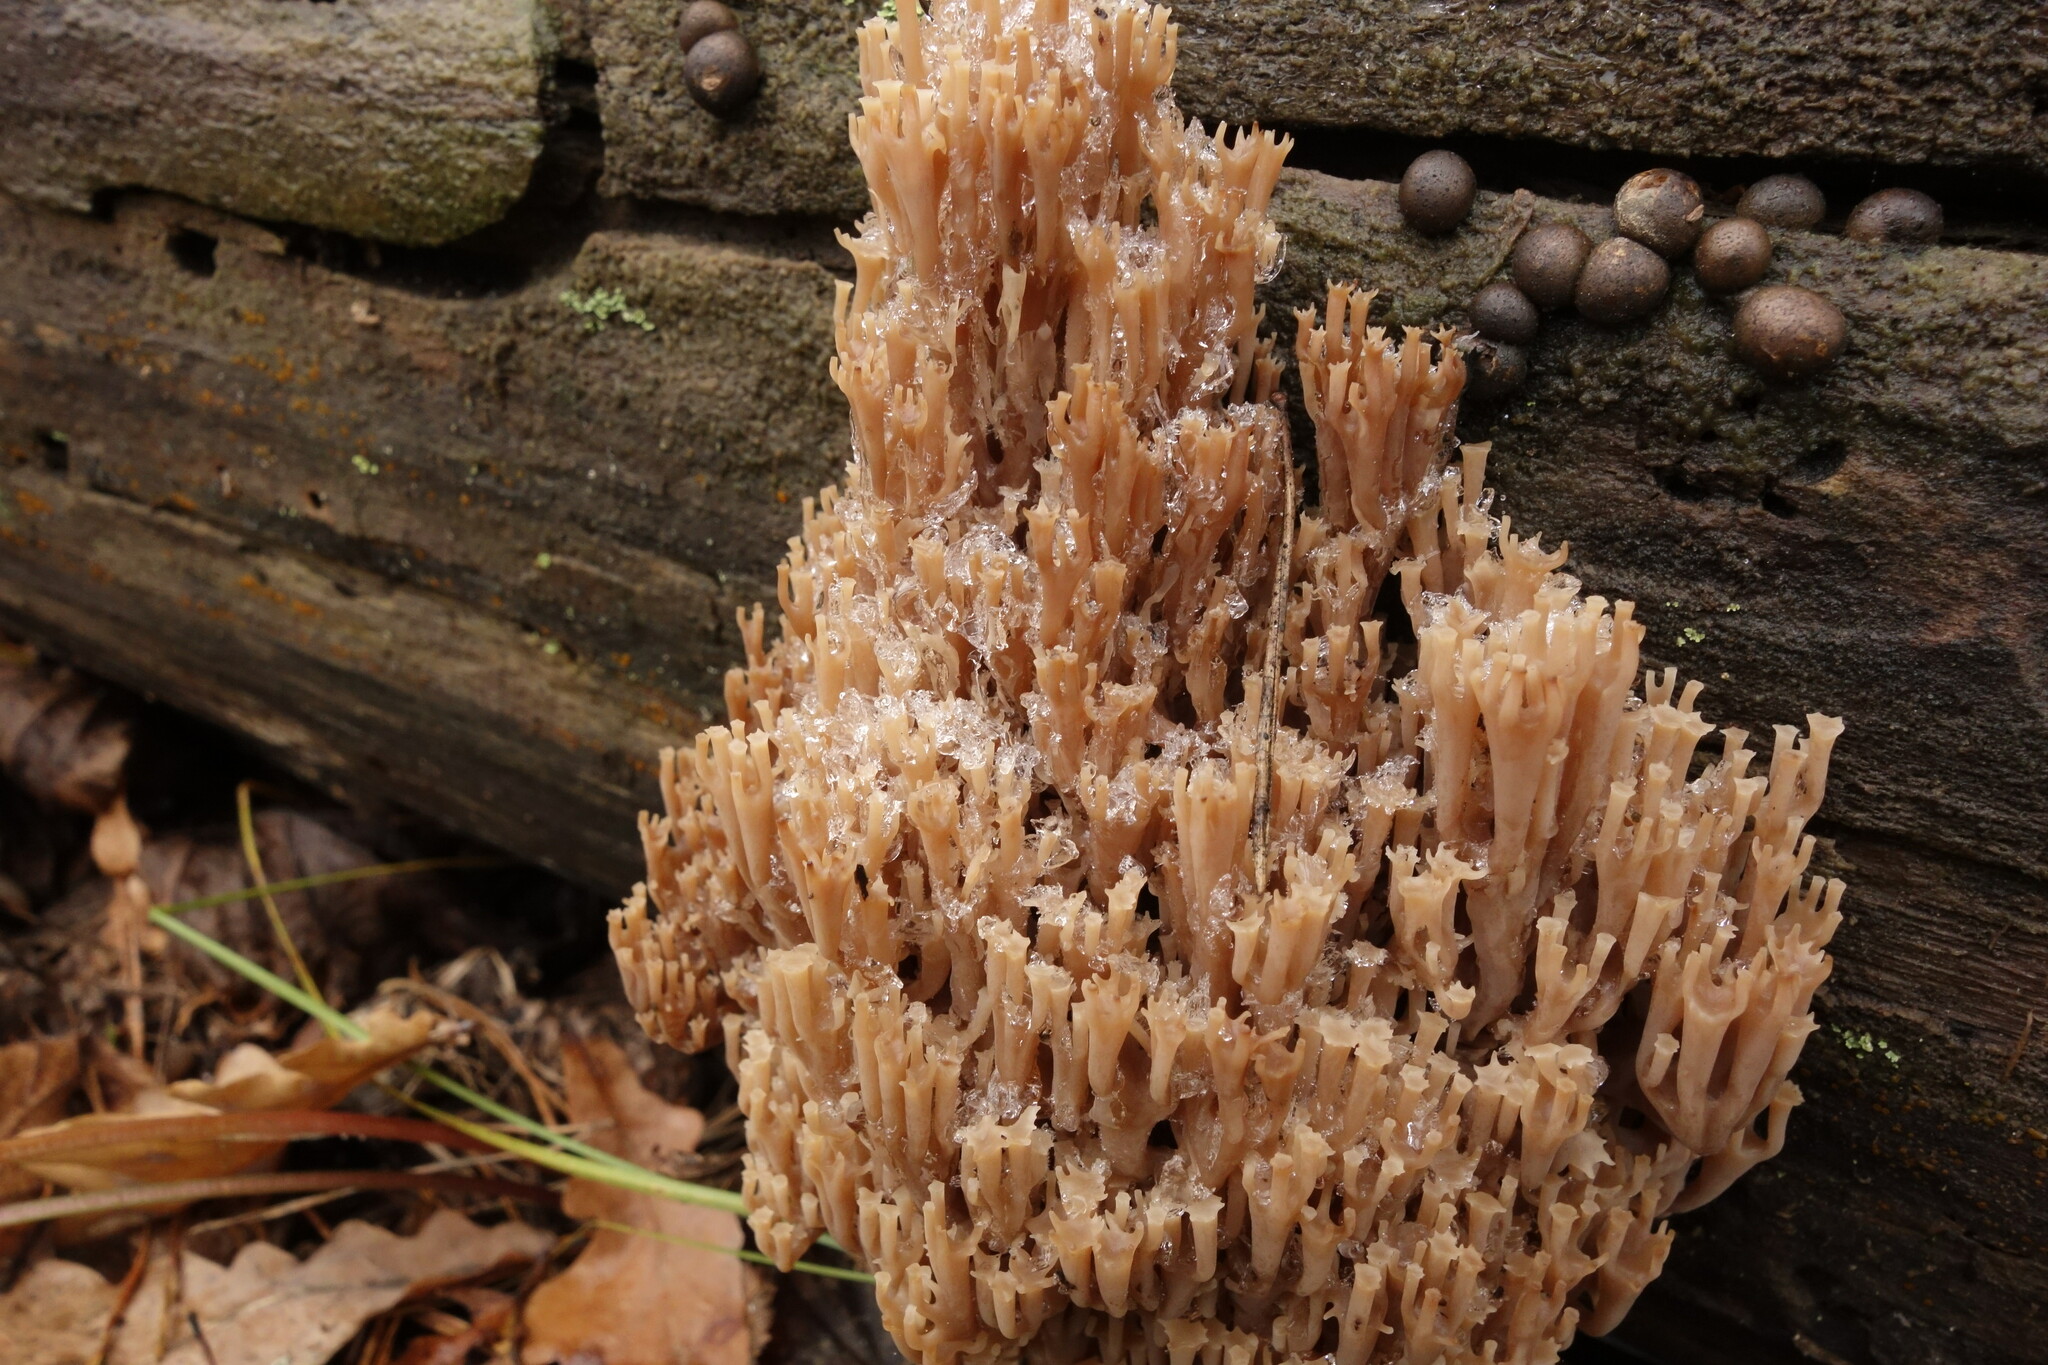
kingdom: Fungi
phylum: Basidiomycota
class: Agaricomycetes
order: Russulales
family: Auriscalpiaceae
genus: Artomyces
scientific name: Artomyces pyxidatus
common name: Crown-tipped coral fungus
